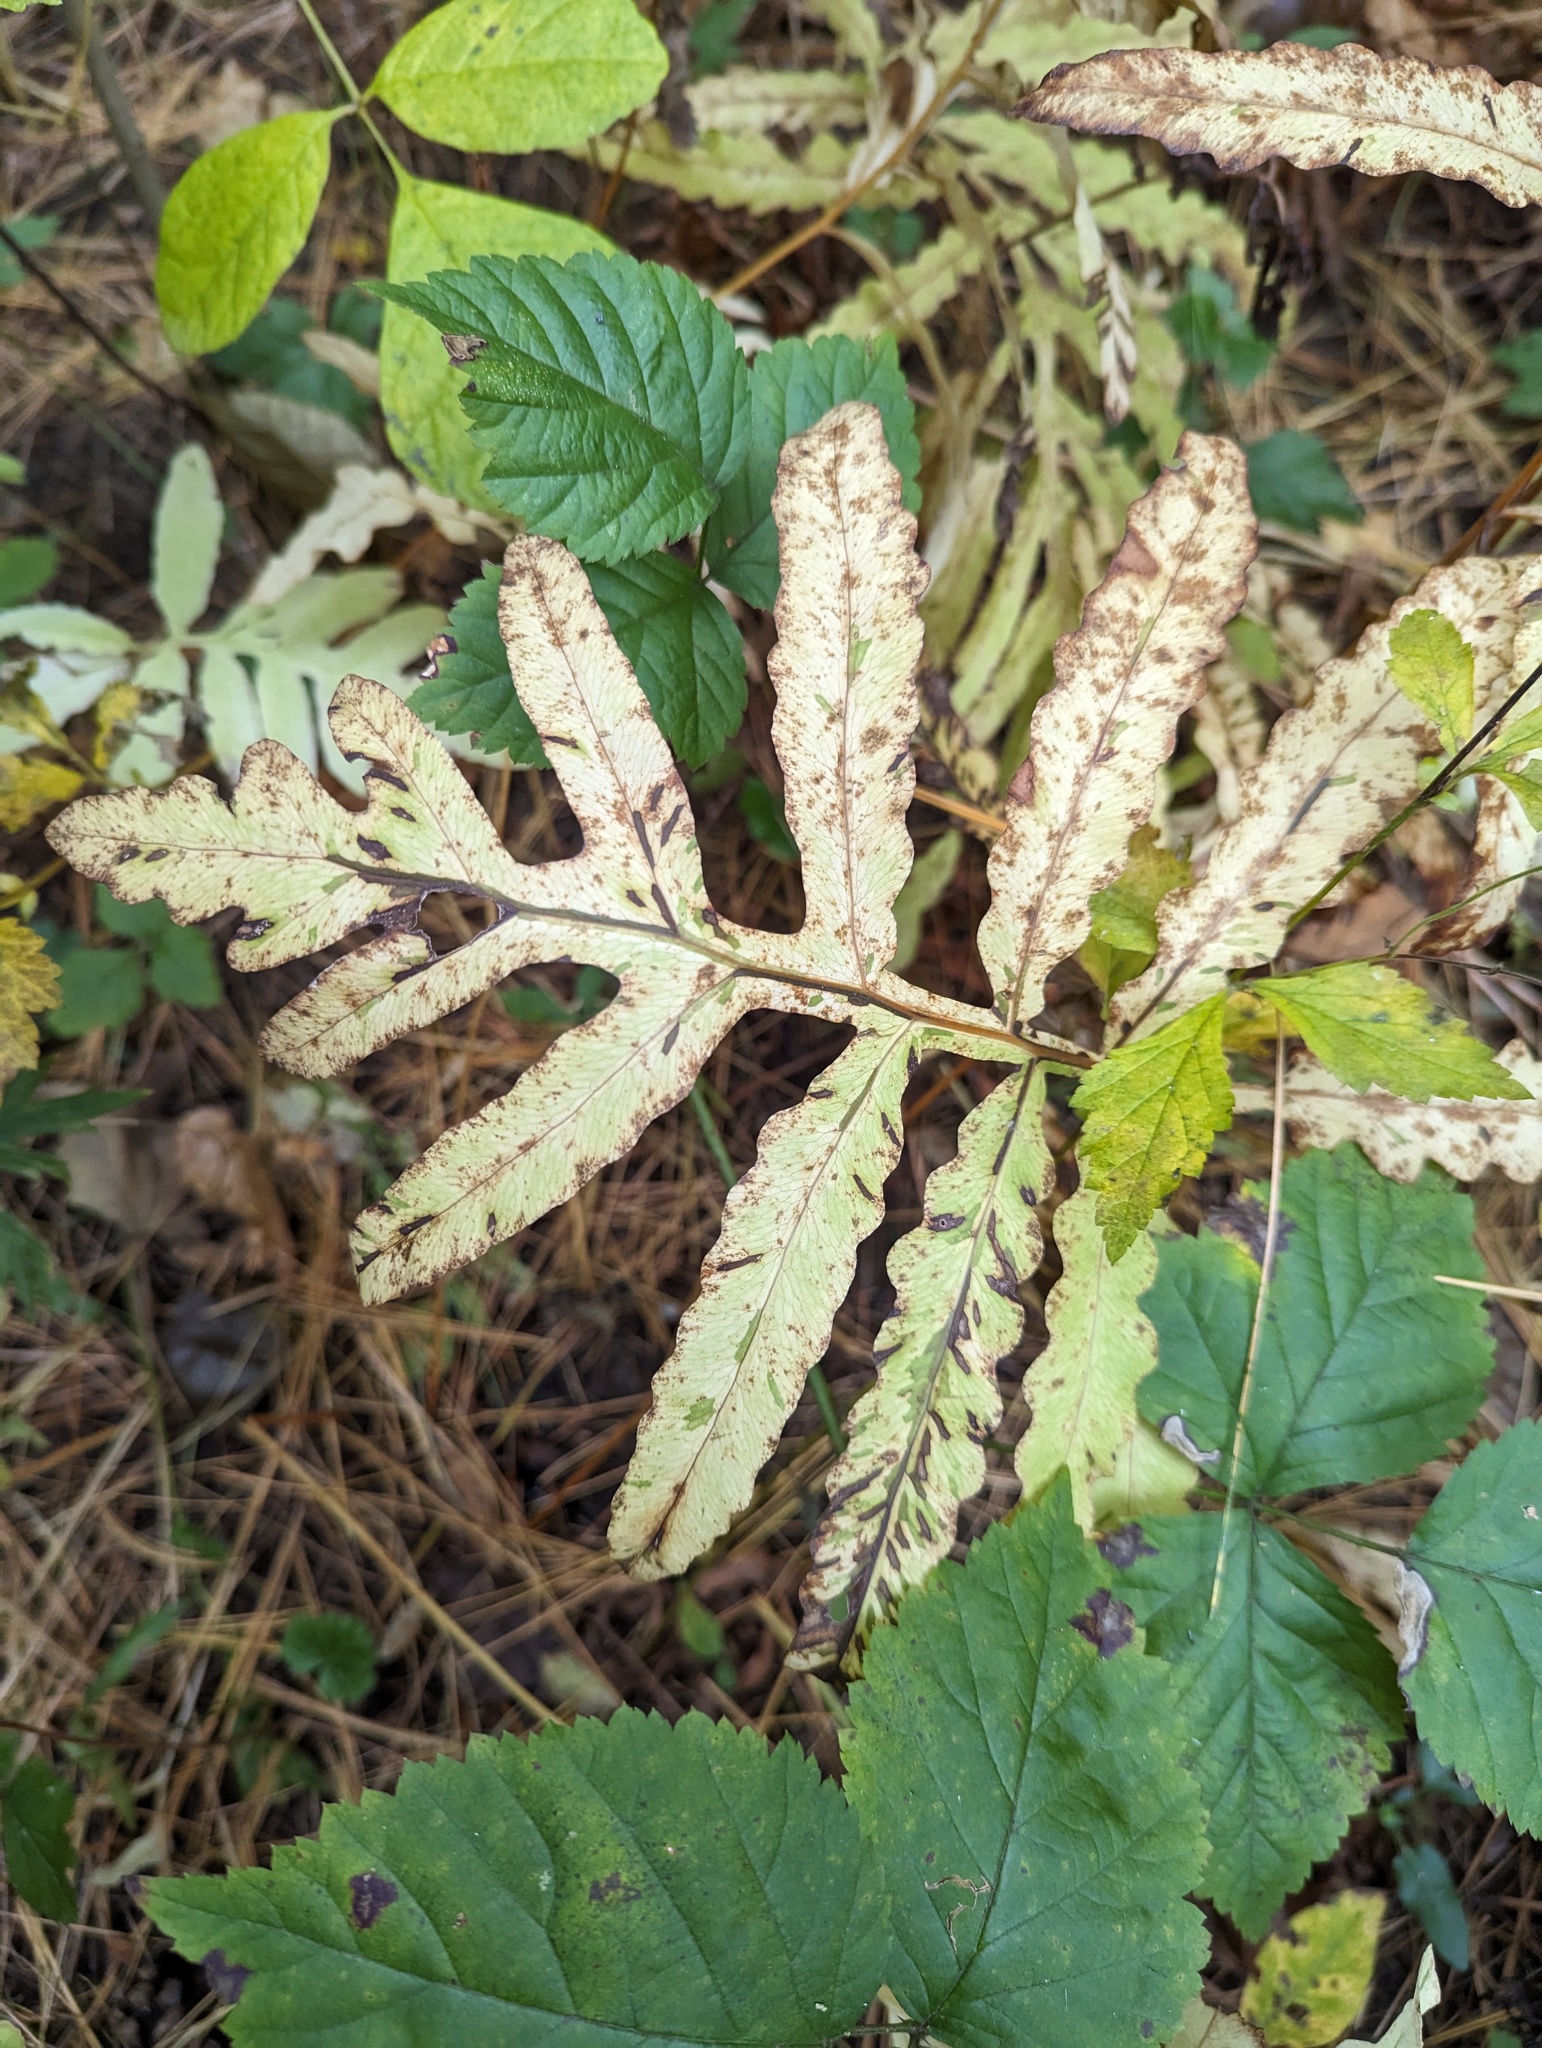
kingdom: Plantae
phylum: Tracheophyta
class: Polypodiopsida
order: Polypodiales
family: Onocleaceae
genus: Onoclea
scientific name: Onoclea sensibilis
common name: Sensitive fern
